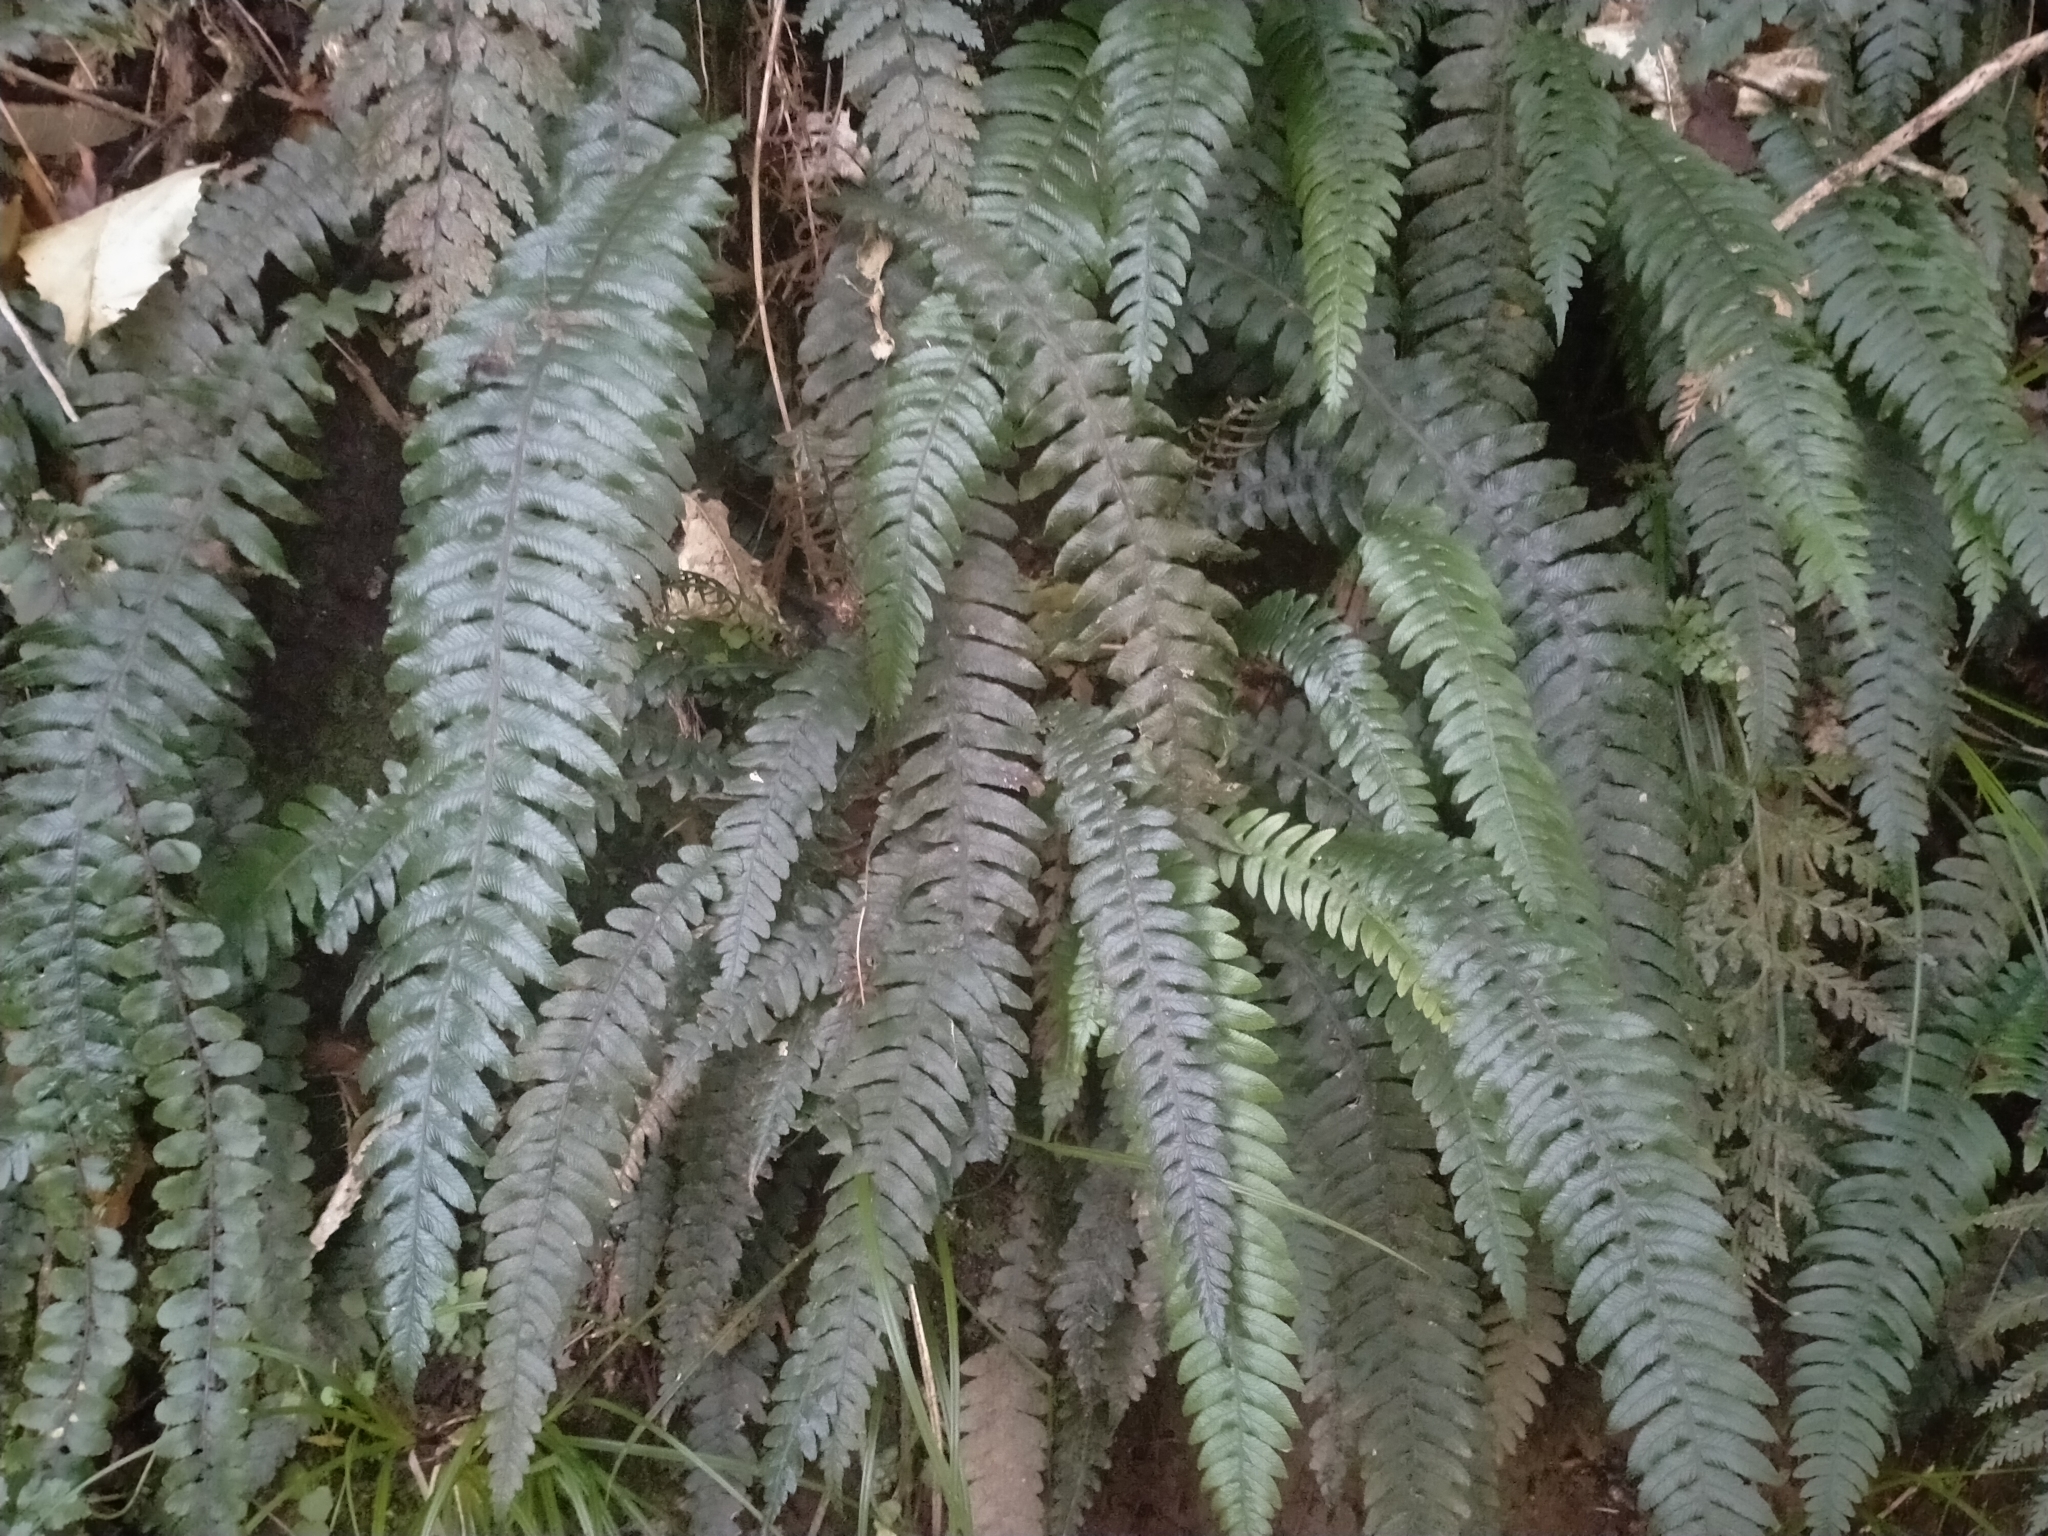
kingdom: Plantae
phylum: Tracheophyta
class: Polypodiopsida
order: Polypodiales
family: Blechnaceae
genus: Austroblechnum
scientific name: Austroblechnum lanceolatum
